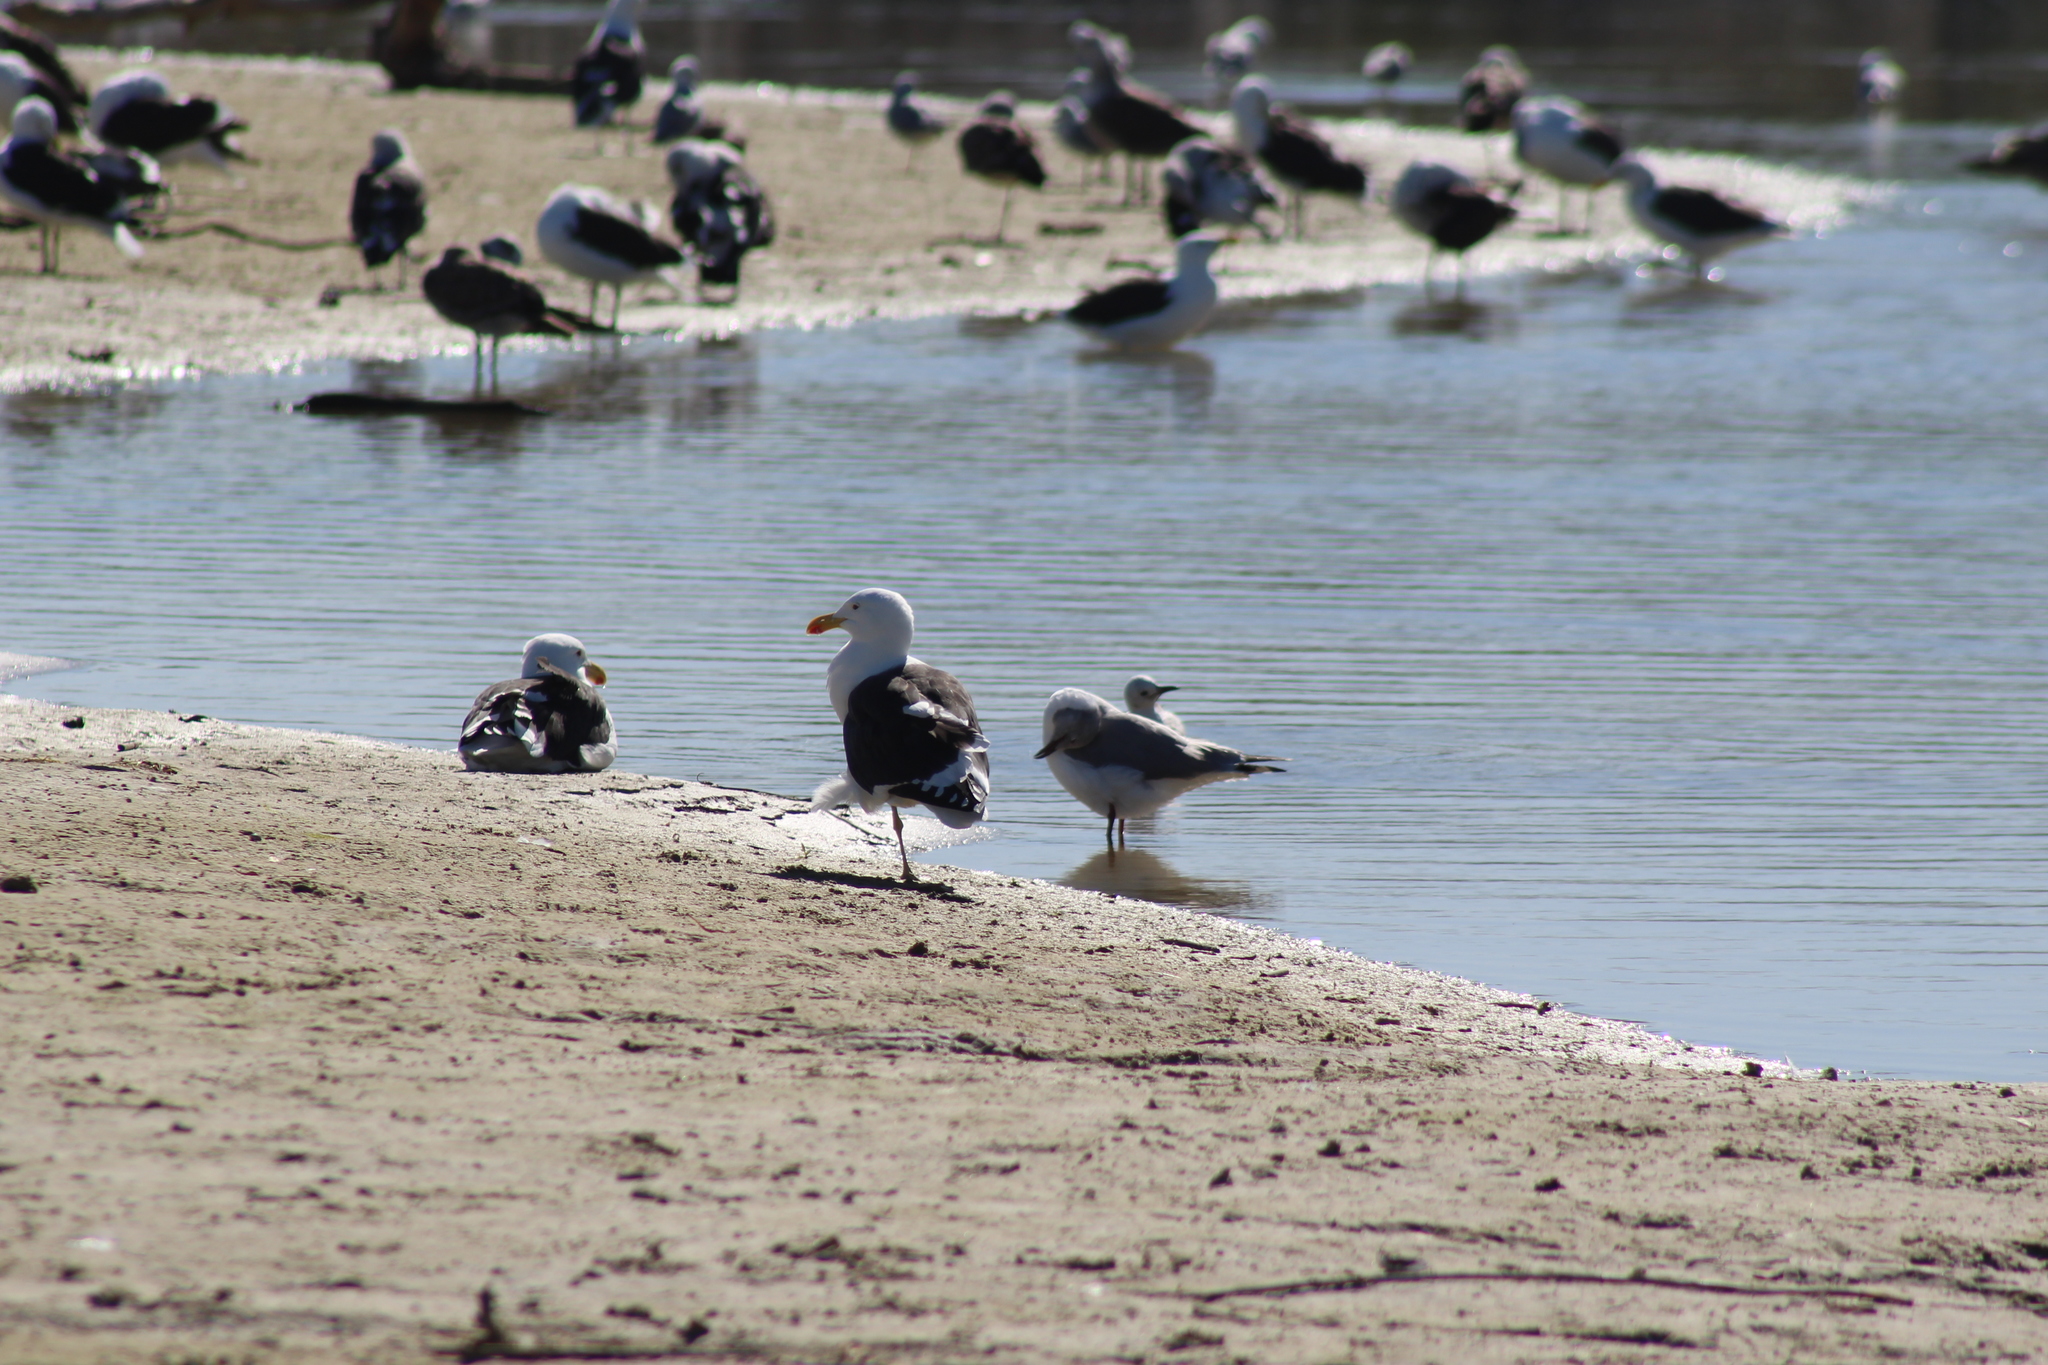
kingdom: Animalia
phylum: Chordata
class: Aves
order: Charadriiformes
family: Laridae
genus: Larus
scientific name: Larus dominicanus
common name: Kelp gull
